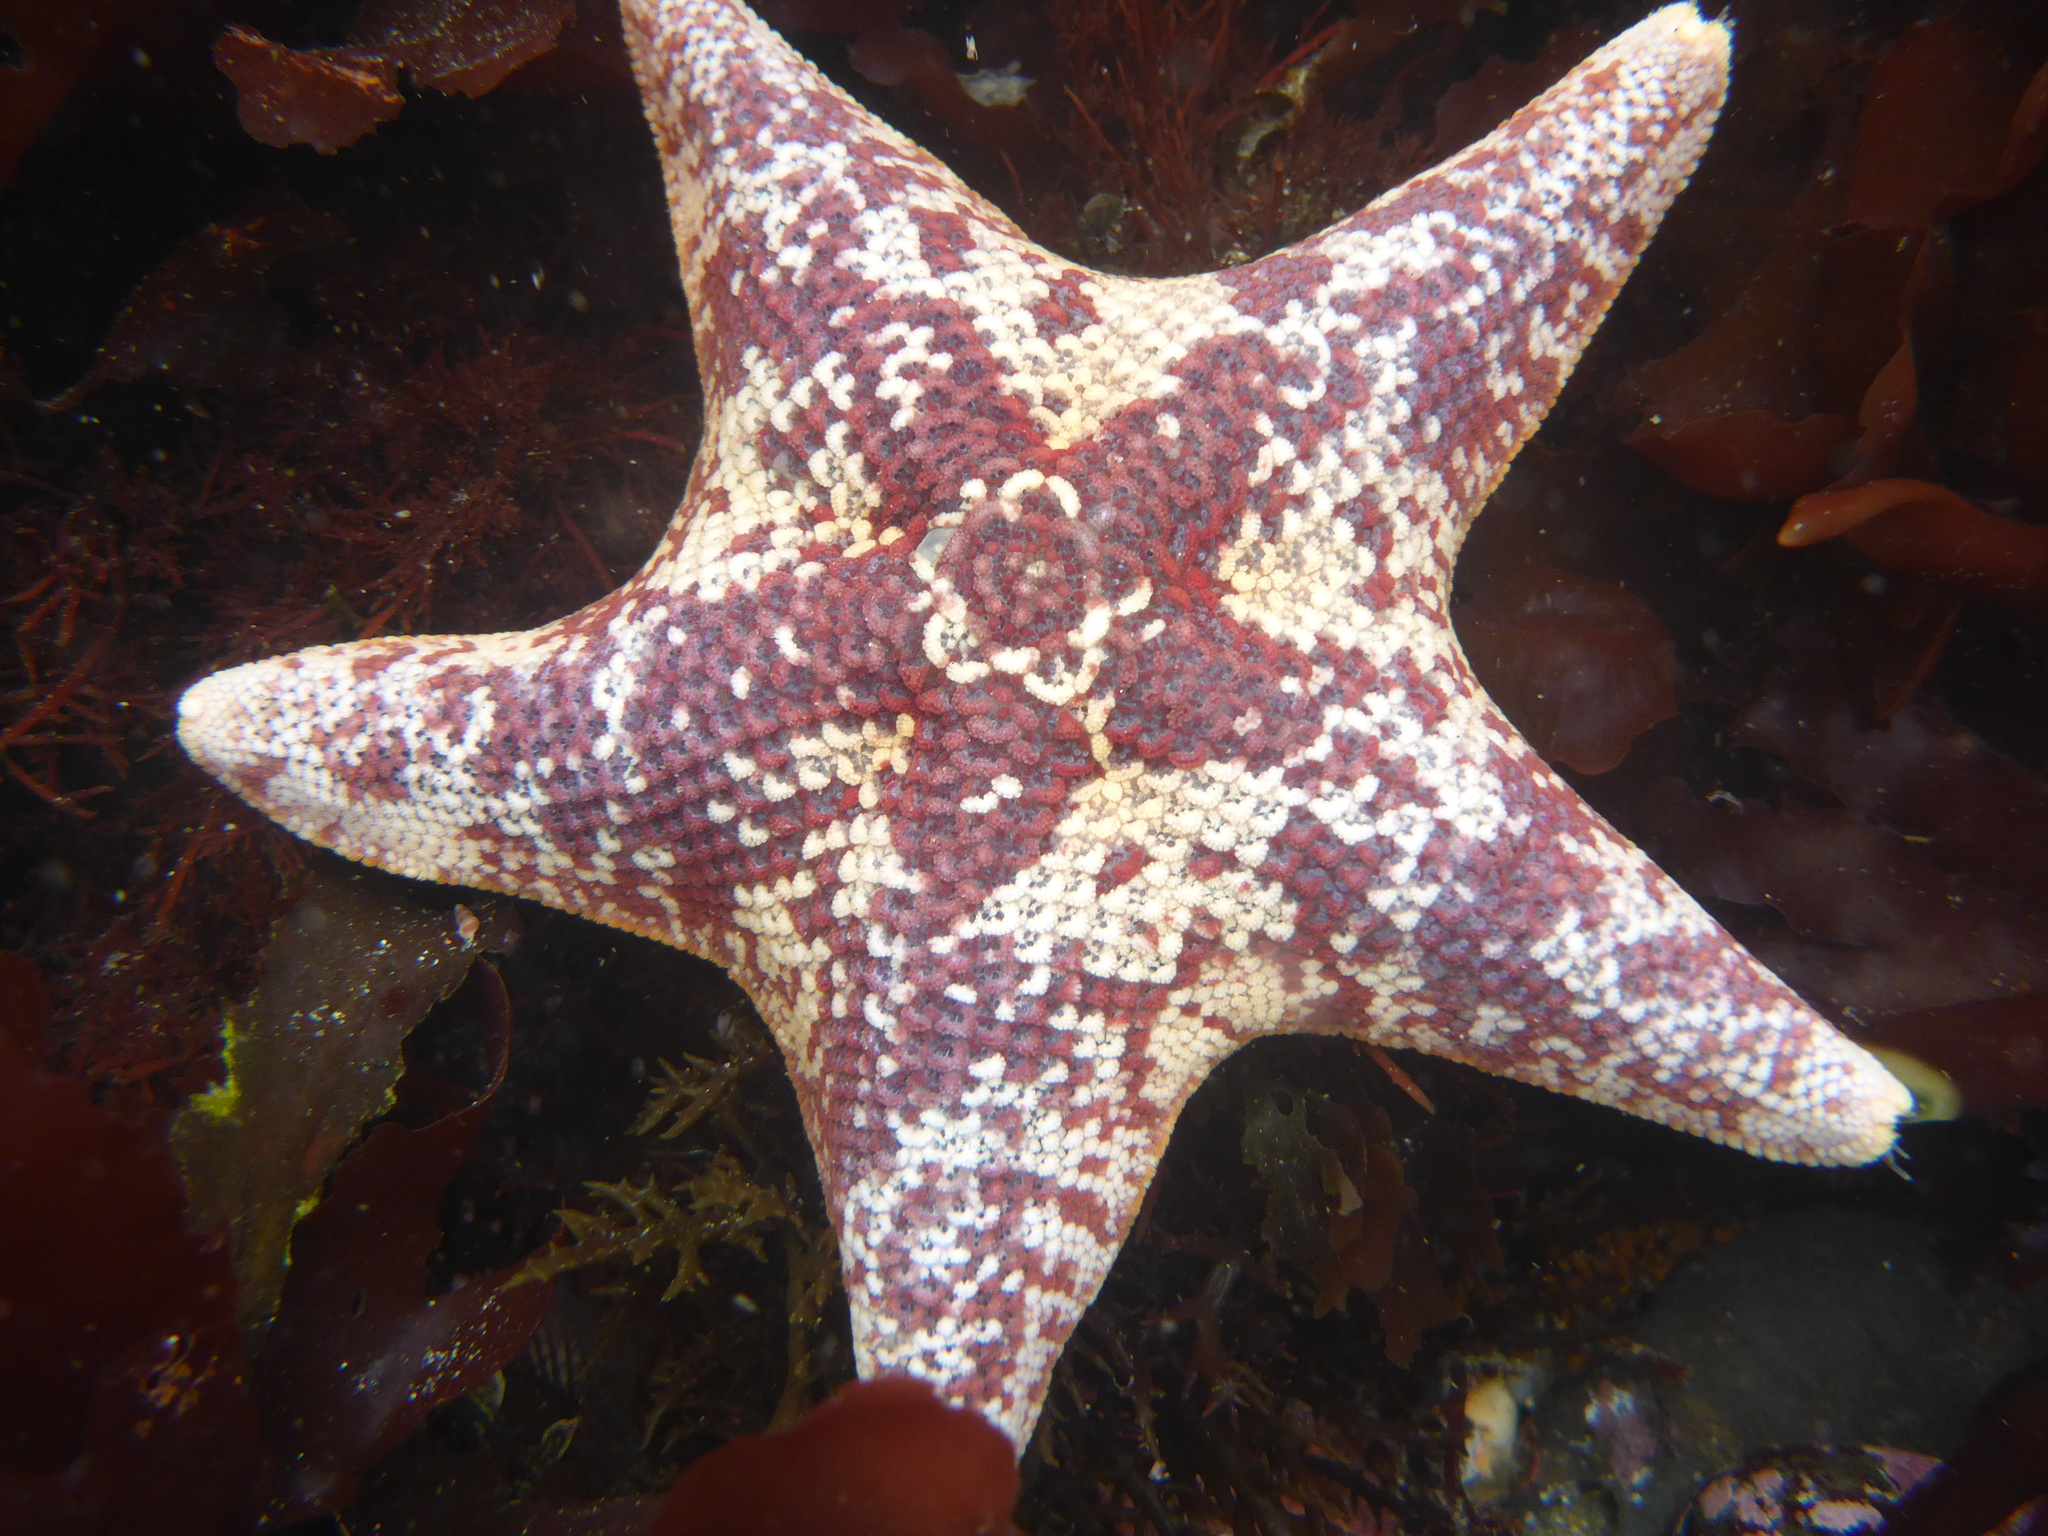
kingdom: Animalia
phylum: Echinodermata
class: Asteroidea
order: Valvatida
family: Asterinidae
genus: Patiria
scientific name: Patiria miniata
